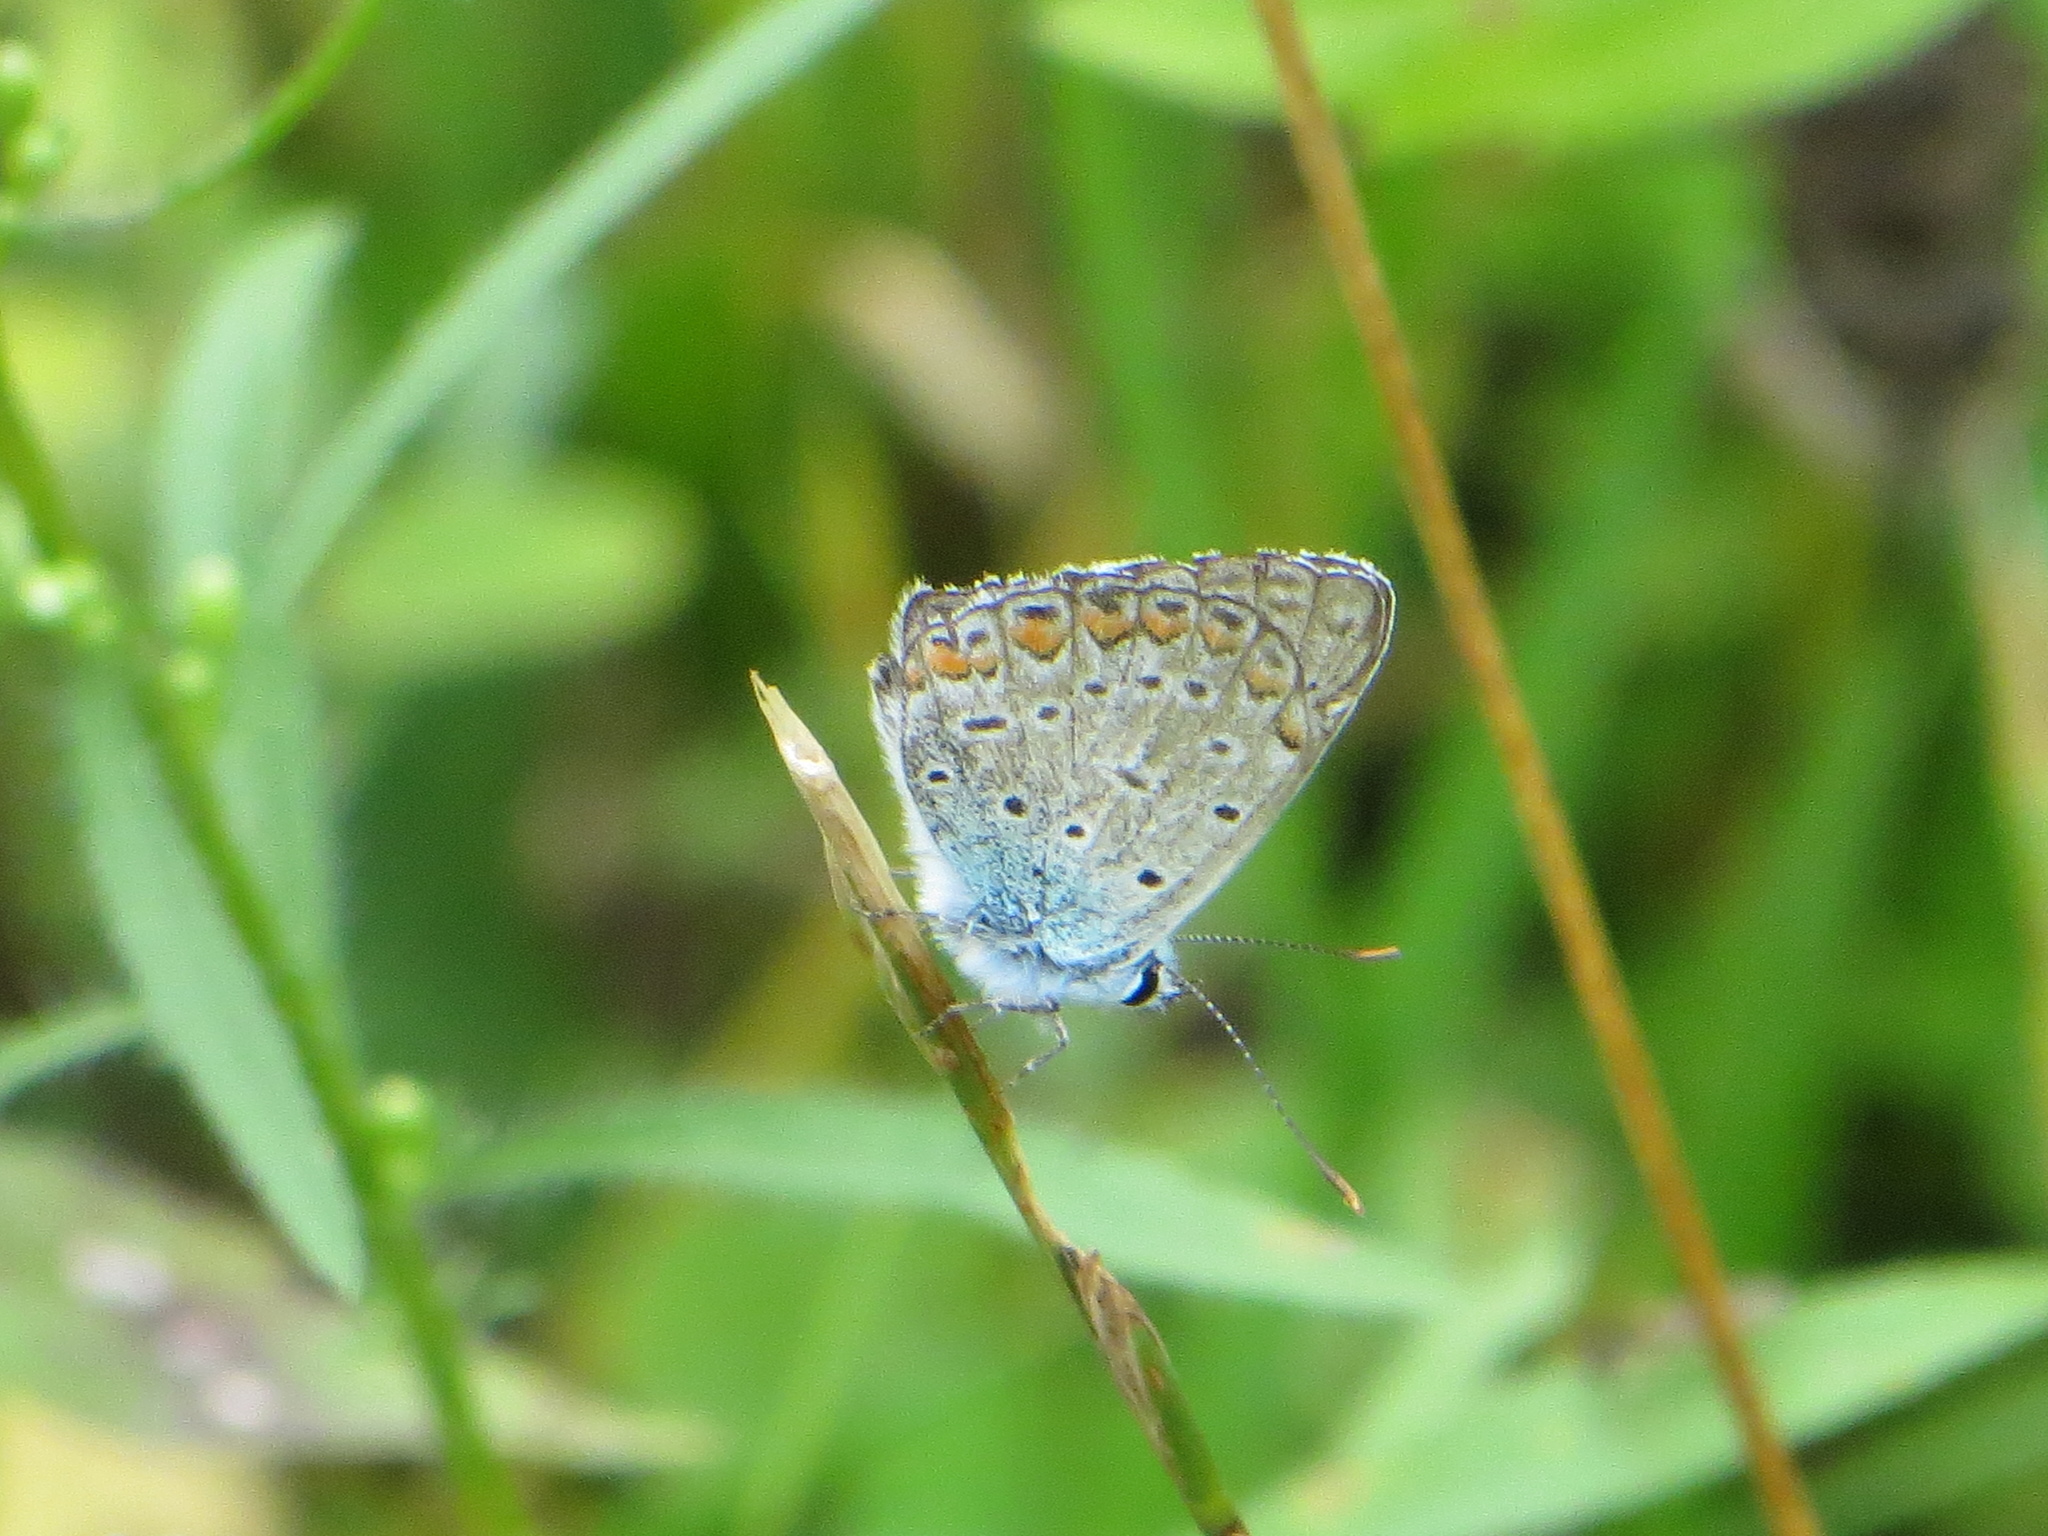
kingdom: Animalia
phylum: Arthropoda
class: Insecta
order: Lepidoptera
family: Lycaenidae
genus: Polyommatus
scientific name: Polyommatus icarus
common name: Common blue
